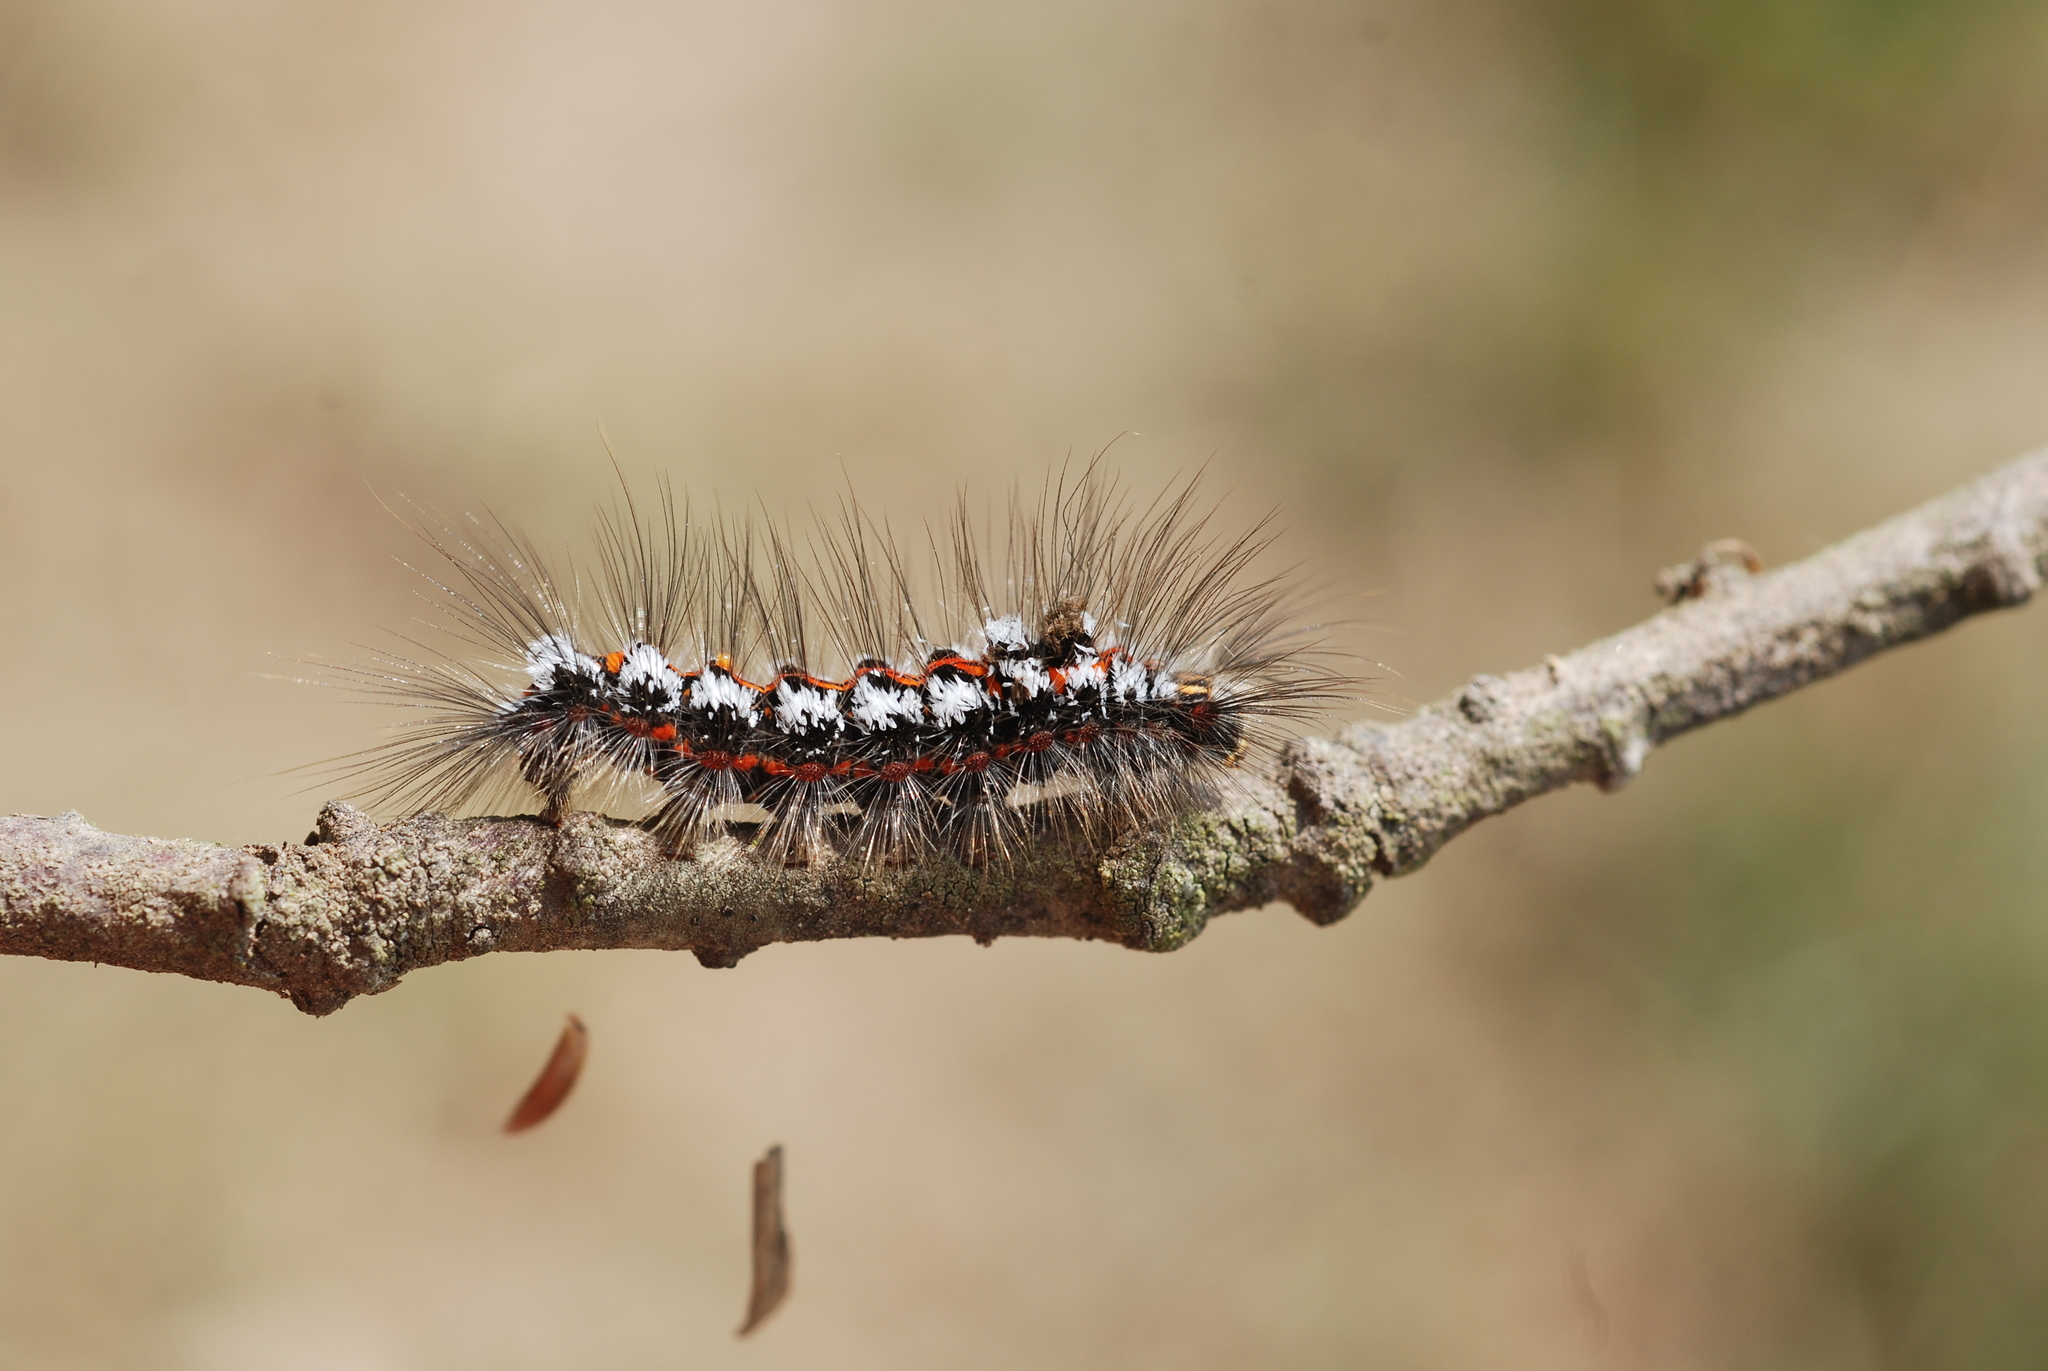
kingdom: Animalia
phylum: Arthropoda
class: Insecta
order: Lepidoptera
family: Erebidae
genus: Sphrageidus
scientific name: Sphrageidus similis
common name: Yellow-tail
